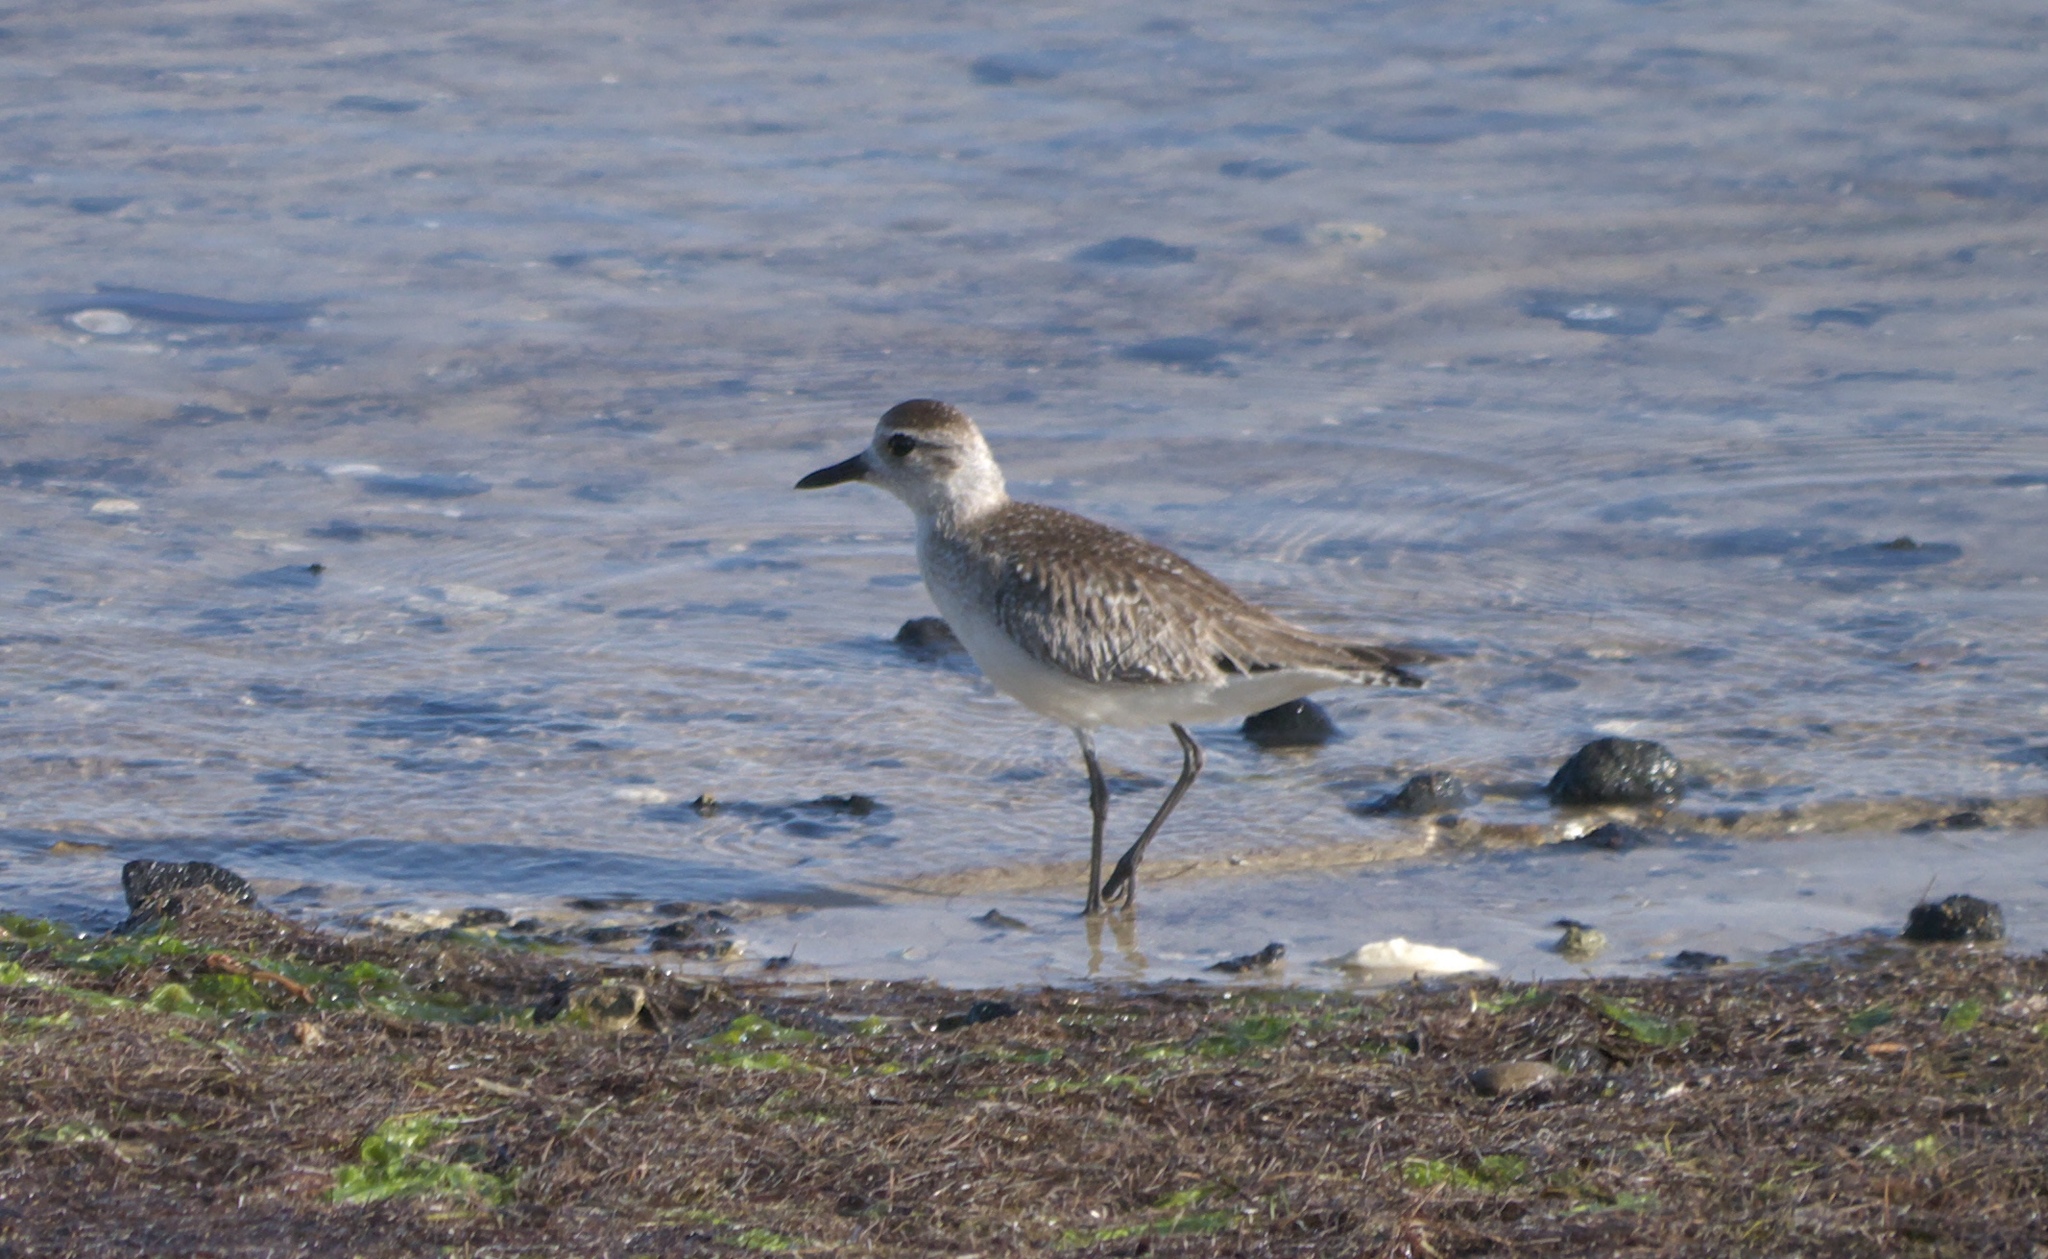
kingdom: Animalia
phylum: Chordata
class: Aves
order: Charadriiformes
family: Charadriidae
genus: Pluvialis
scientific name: Pluvialis squatarola
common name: Grey plover
